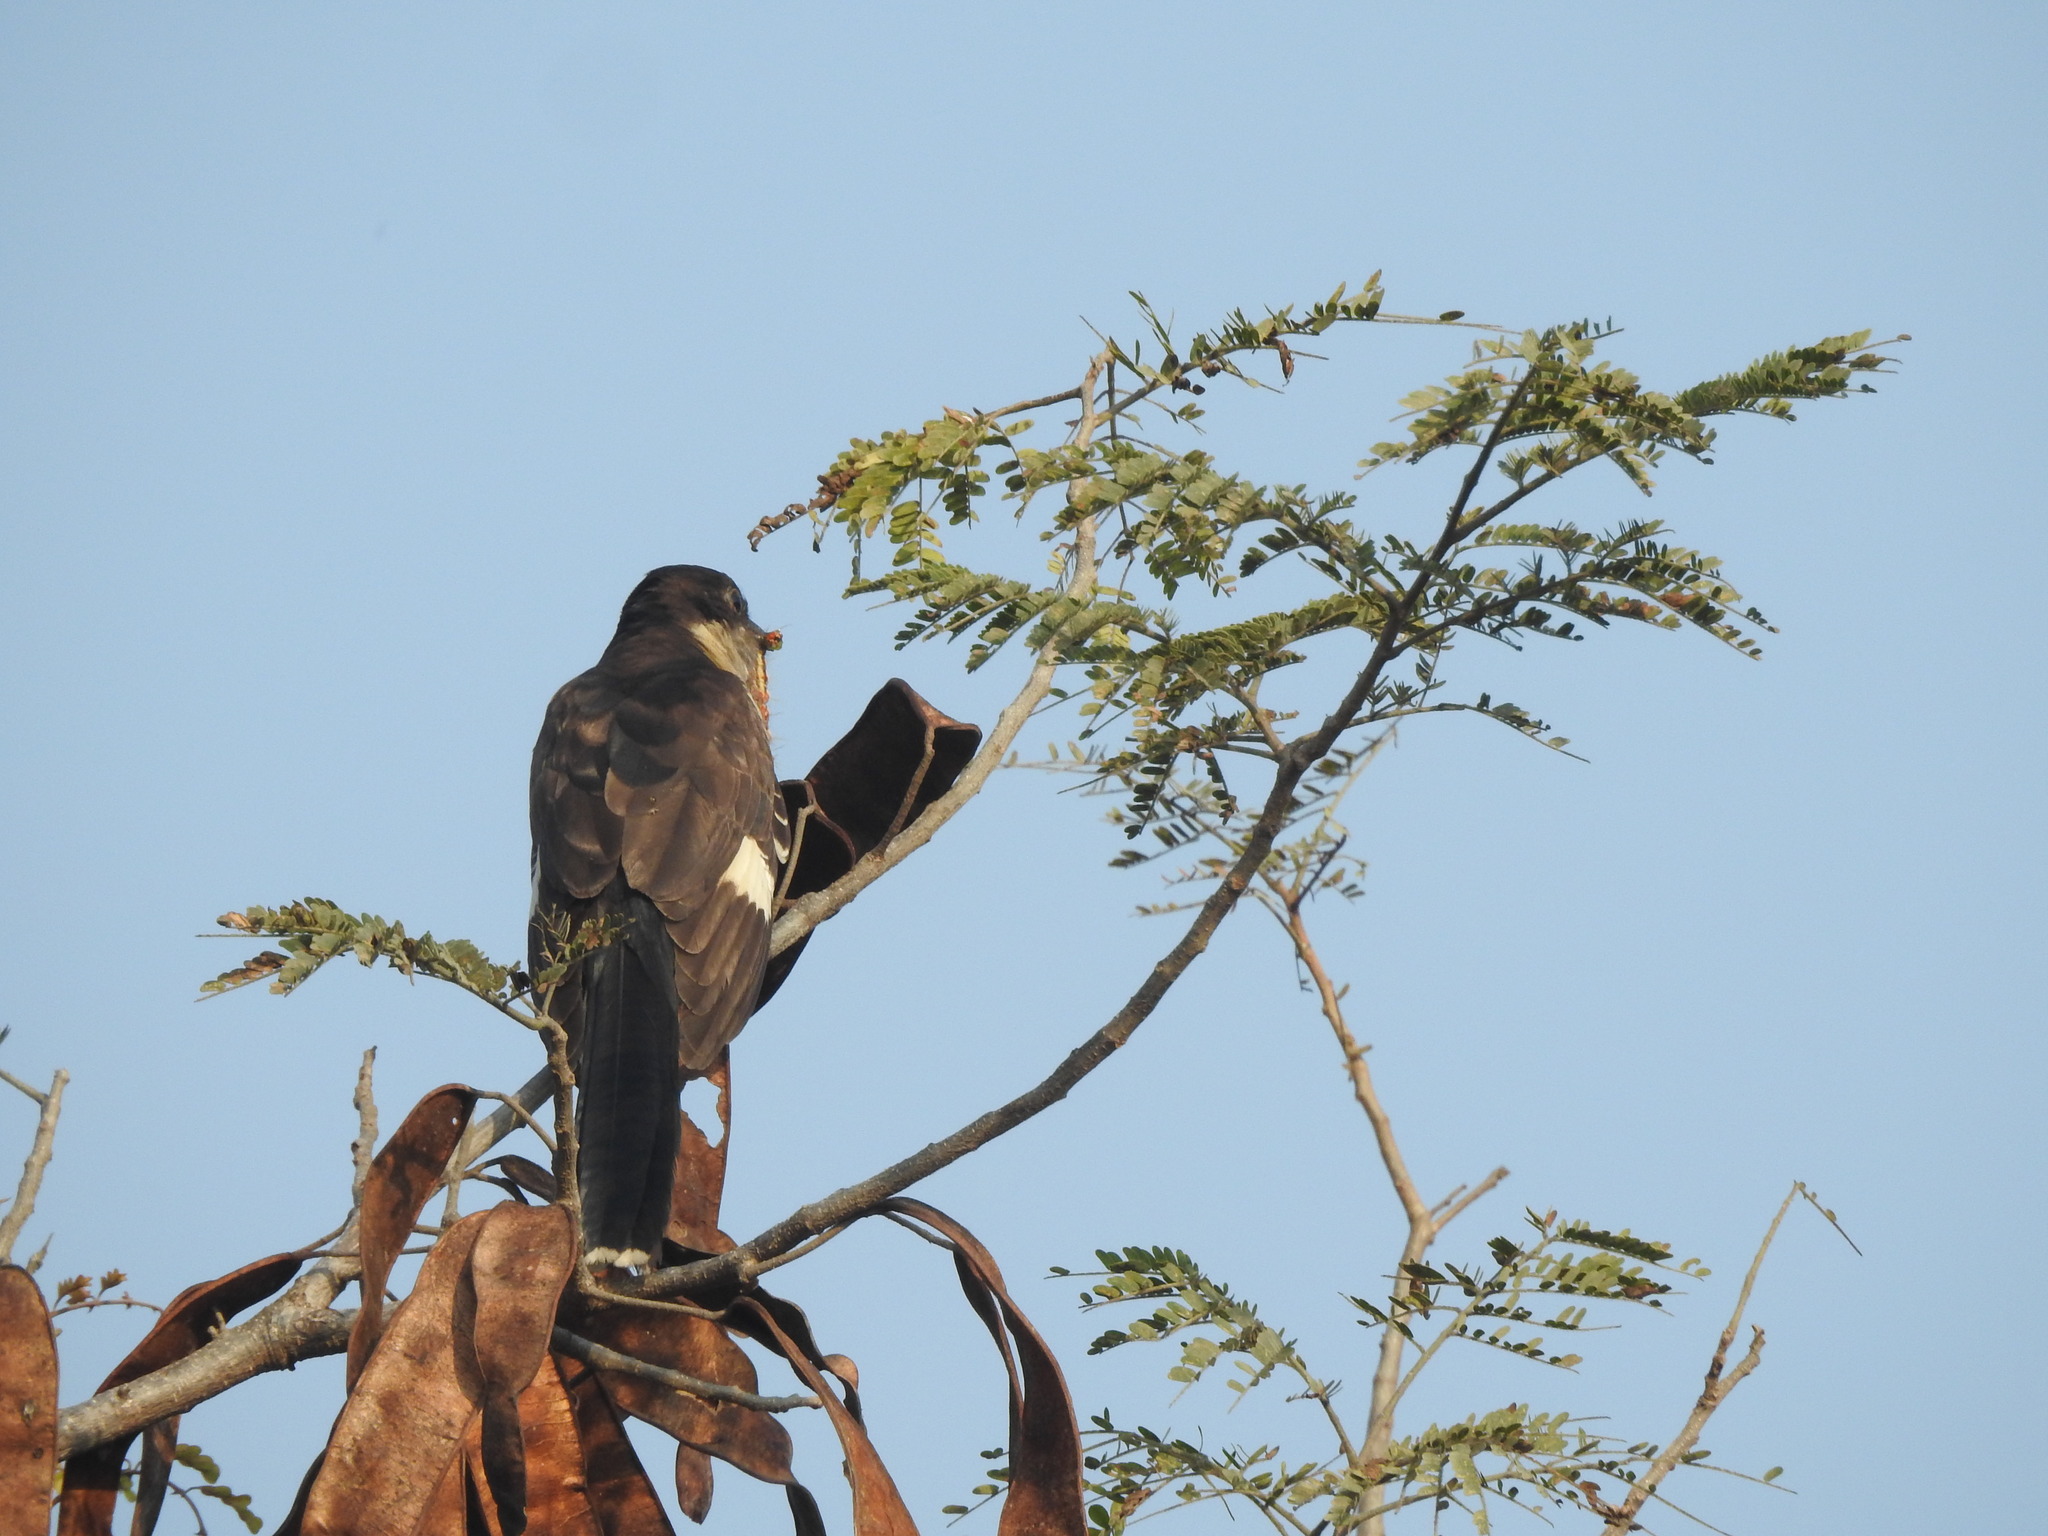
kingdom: Animalia
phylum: Chordata
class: Aves
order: Cuculiformes
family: Cuculidae
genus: Clamator
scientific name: Clamator jacobinus
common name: Jacobin cuckoo
